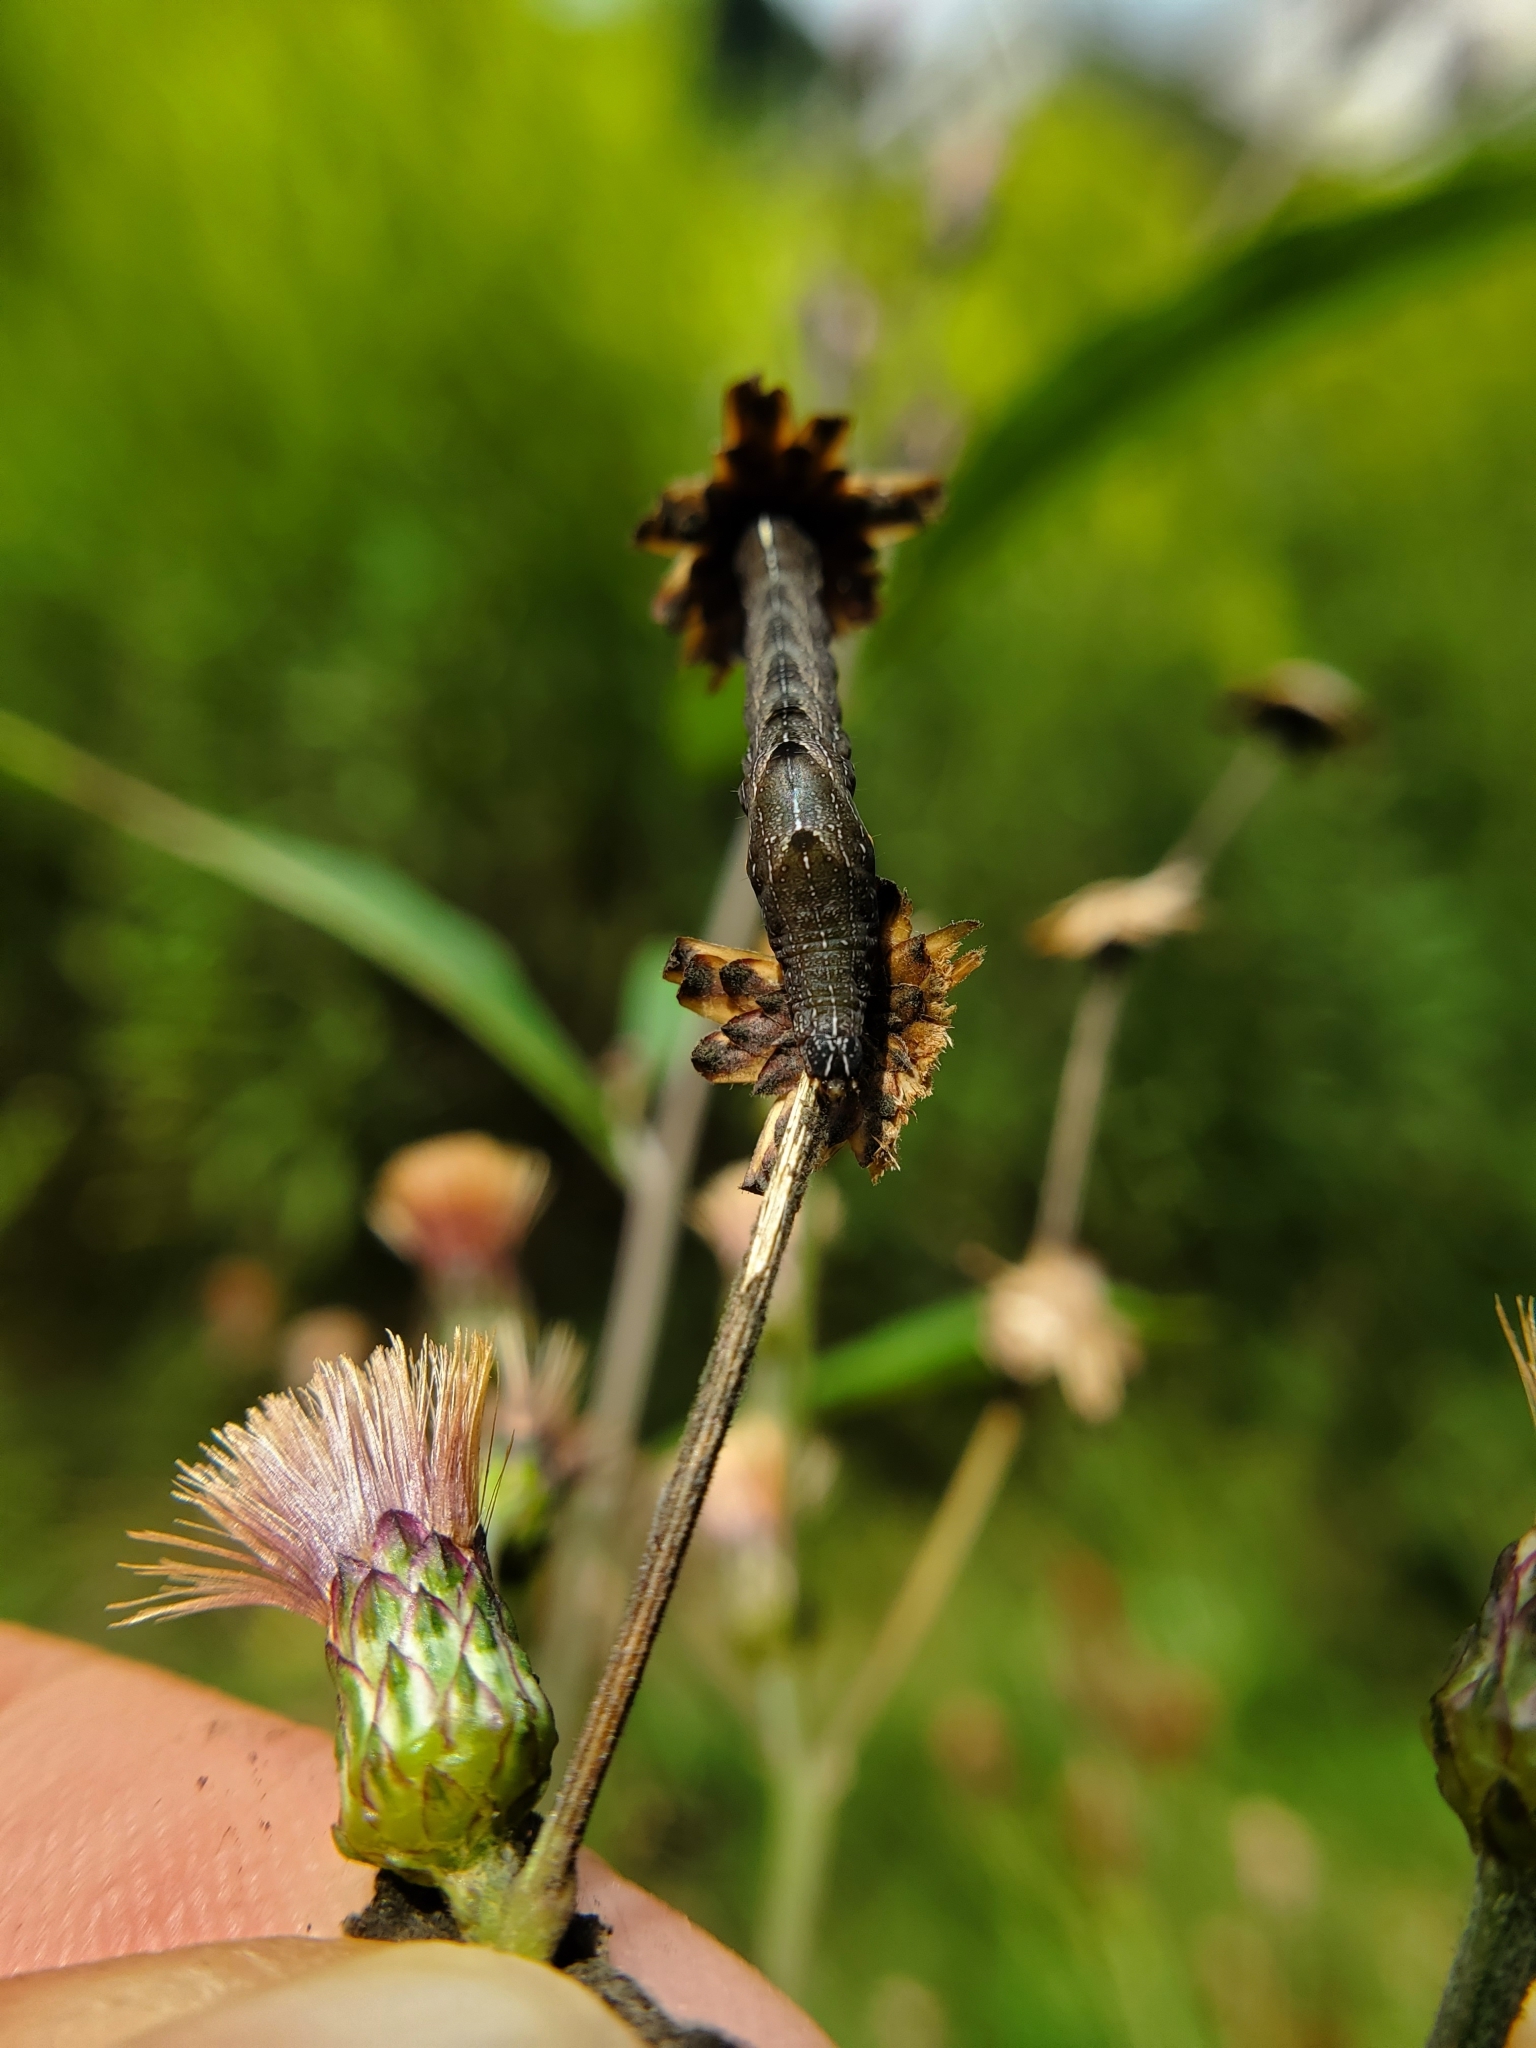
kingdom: Animalia
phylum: Arthropoda
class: Insecta
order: Lepidoptera
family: Noctuidae
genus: Perigea
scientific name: Perigea xanthioides
